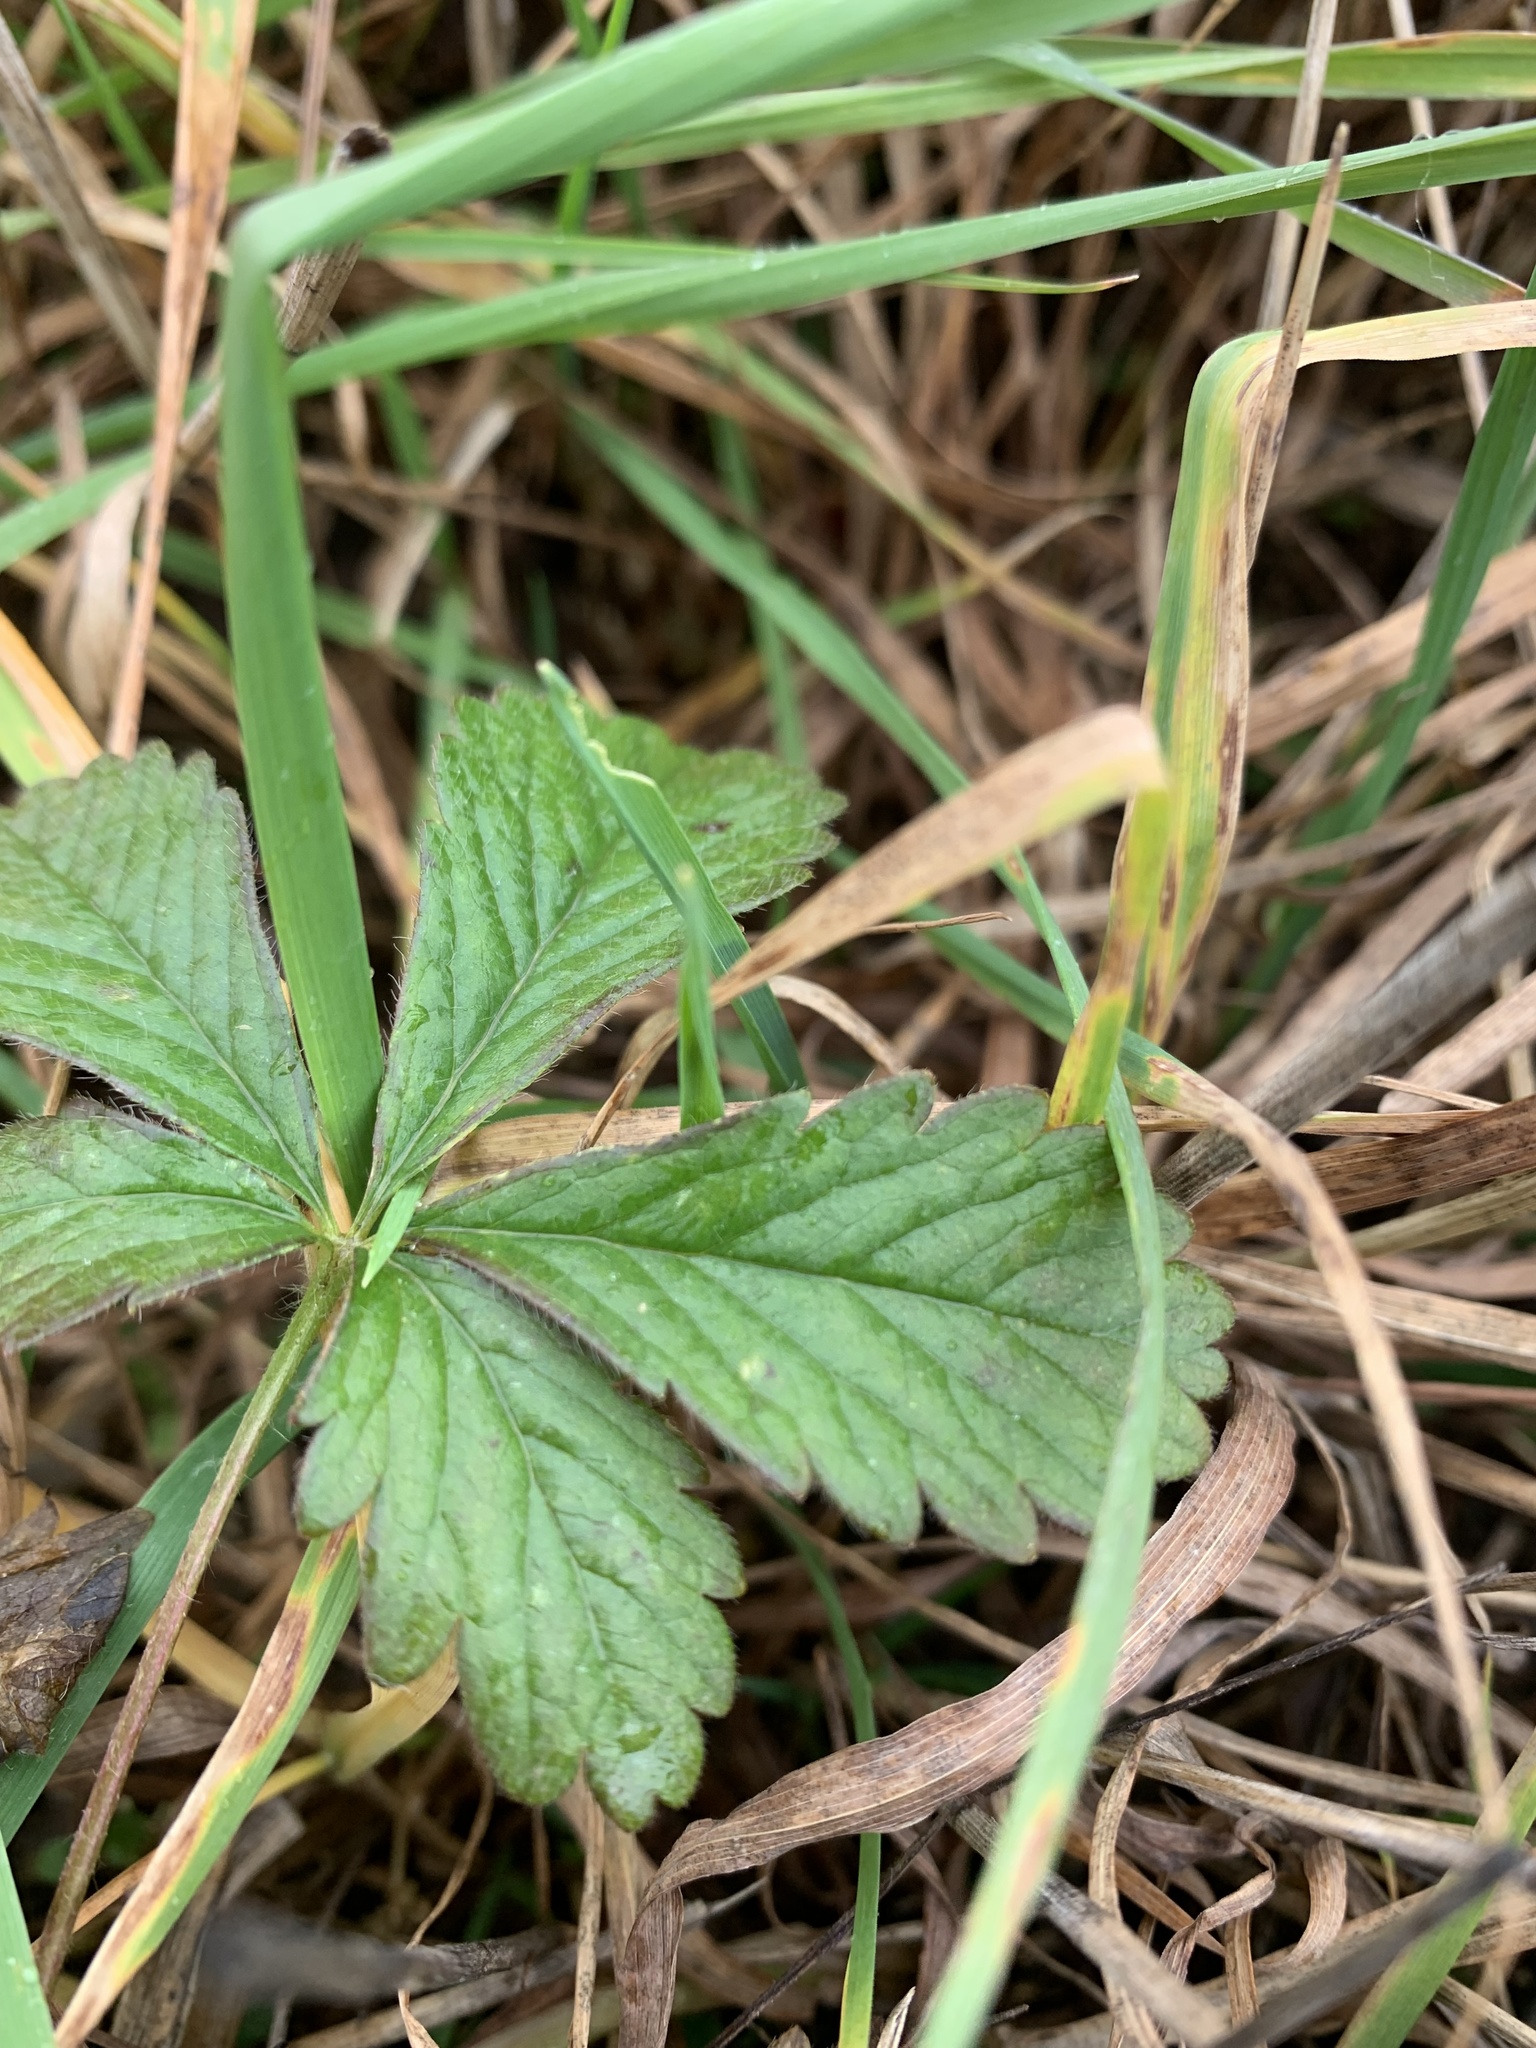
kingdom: Plantae
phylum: Tracheophyta
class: Magnoliopsida
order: Rosales
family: Rosaceae
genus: Potentilla
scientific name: Potentilla intermedia
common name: Downy cinquefoil
